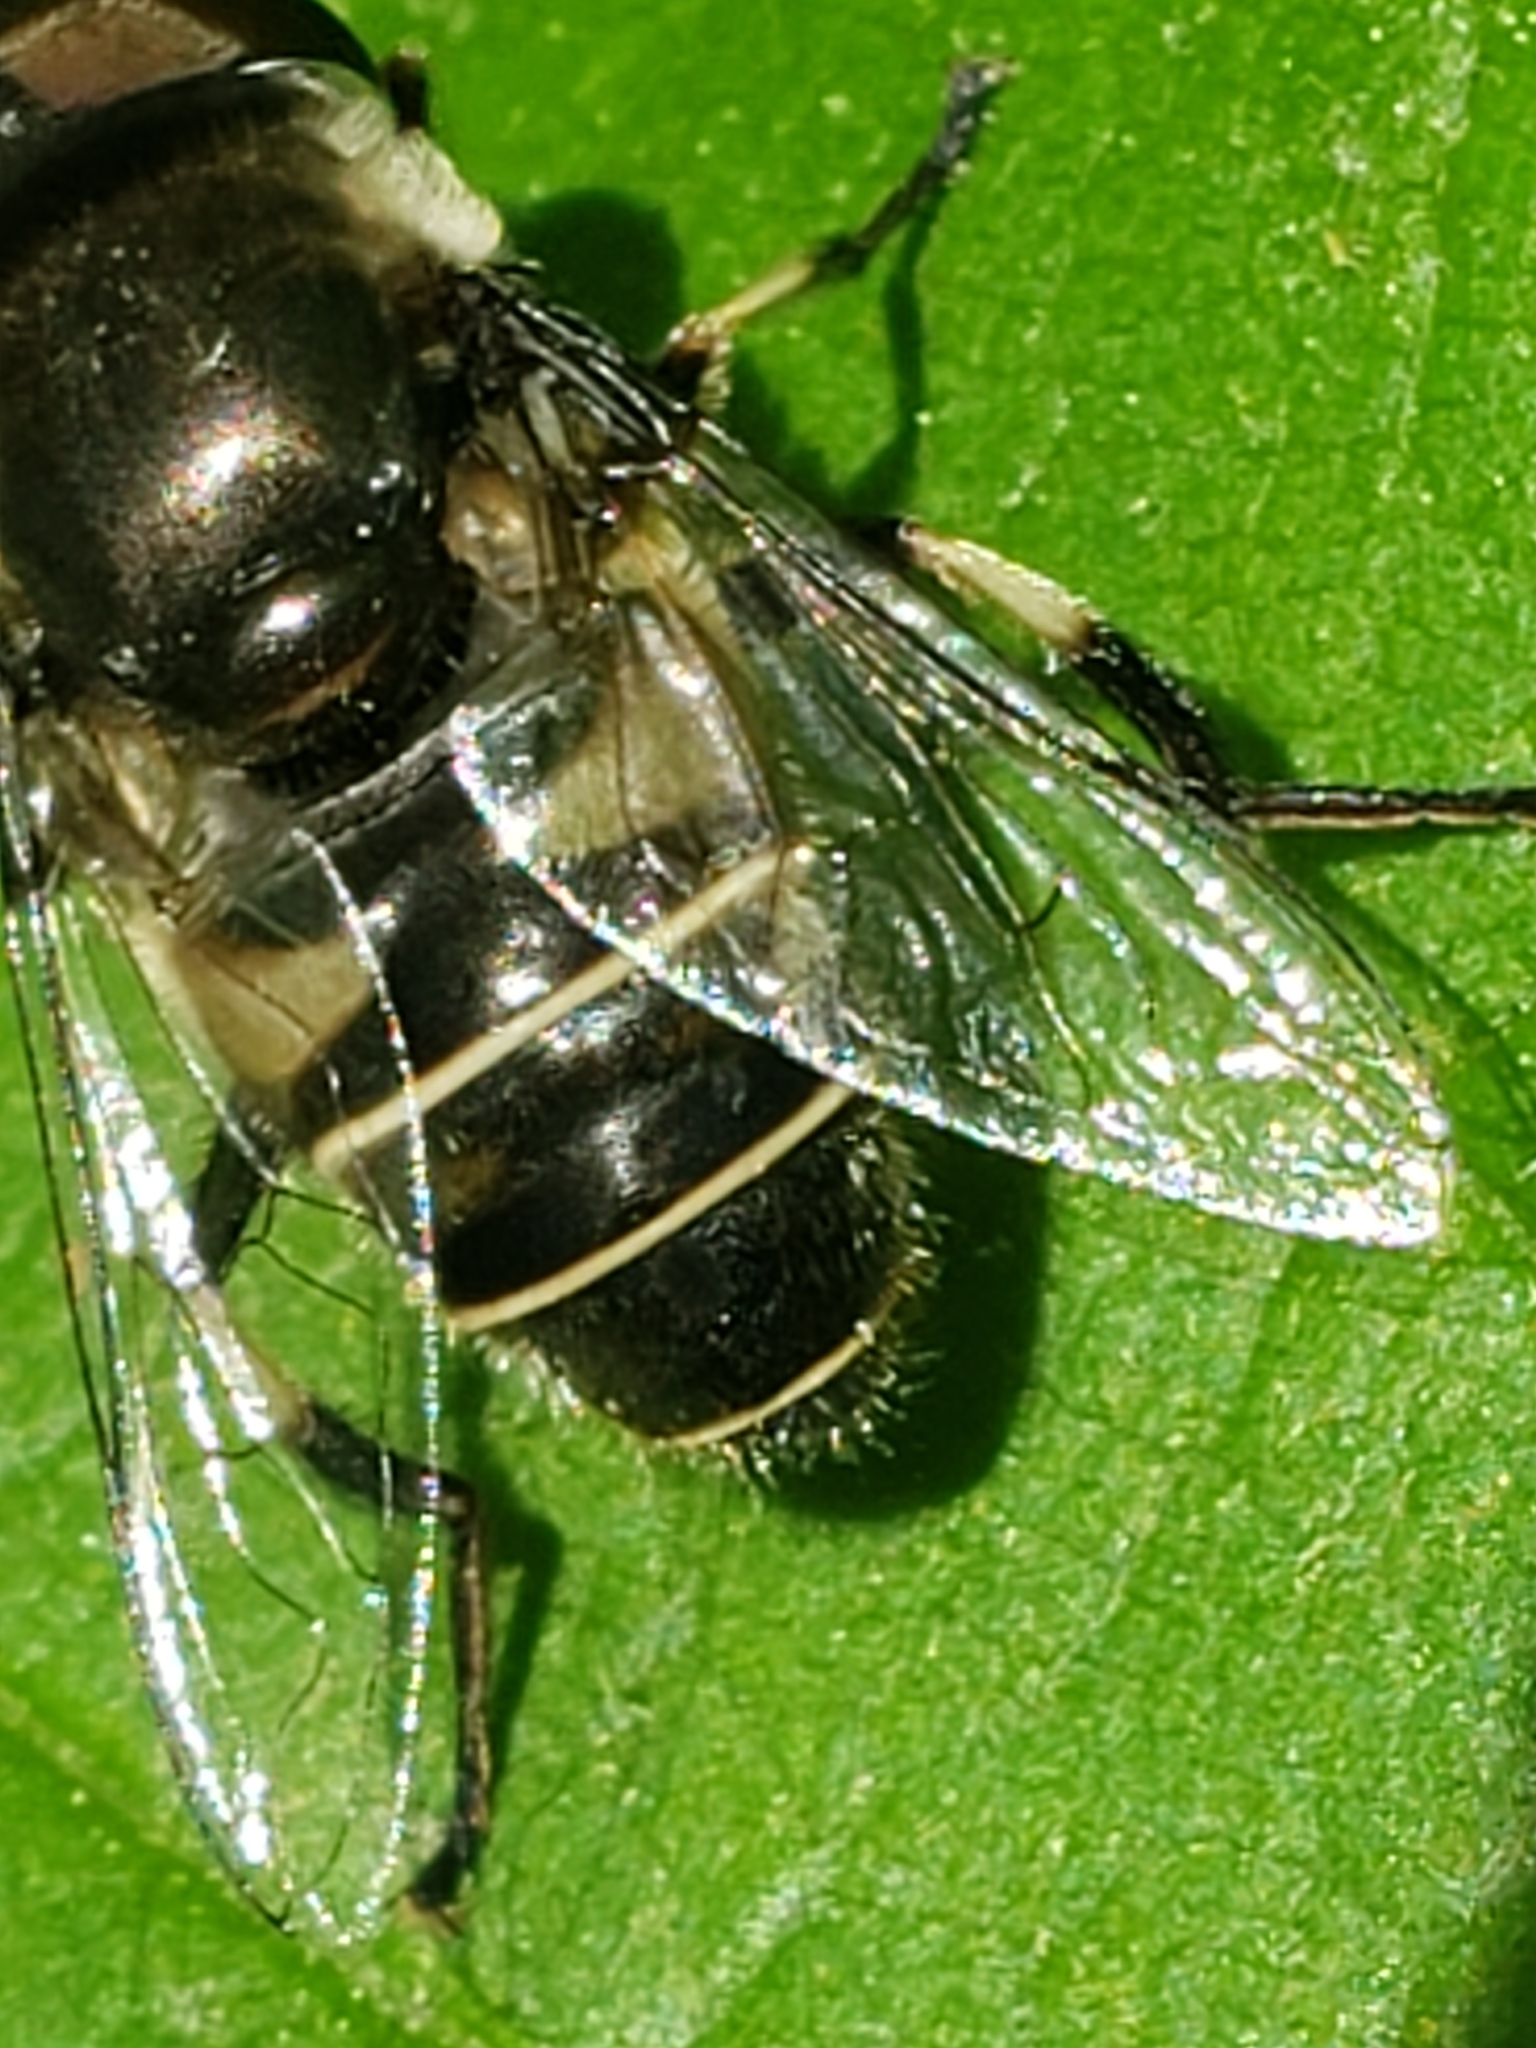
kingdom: Animalia
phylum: Arthropoda
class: Insecta
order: Diptera
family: Syrphidae
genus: Eristalis
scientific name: Eristalis dimidiata
